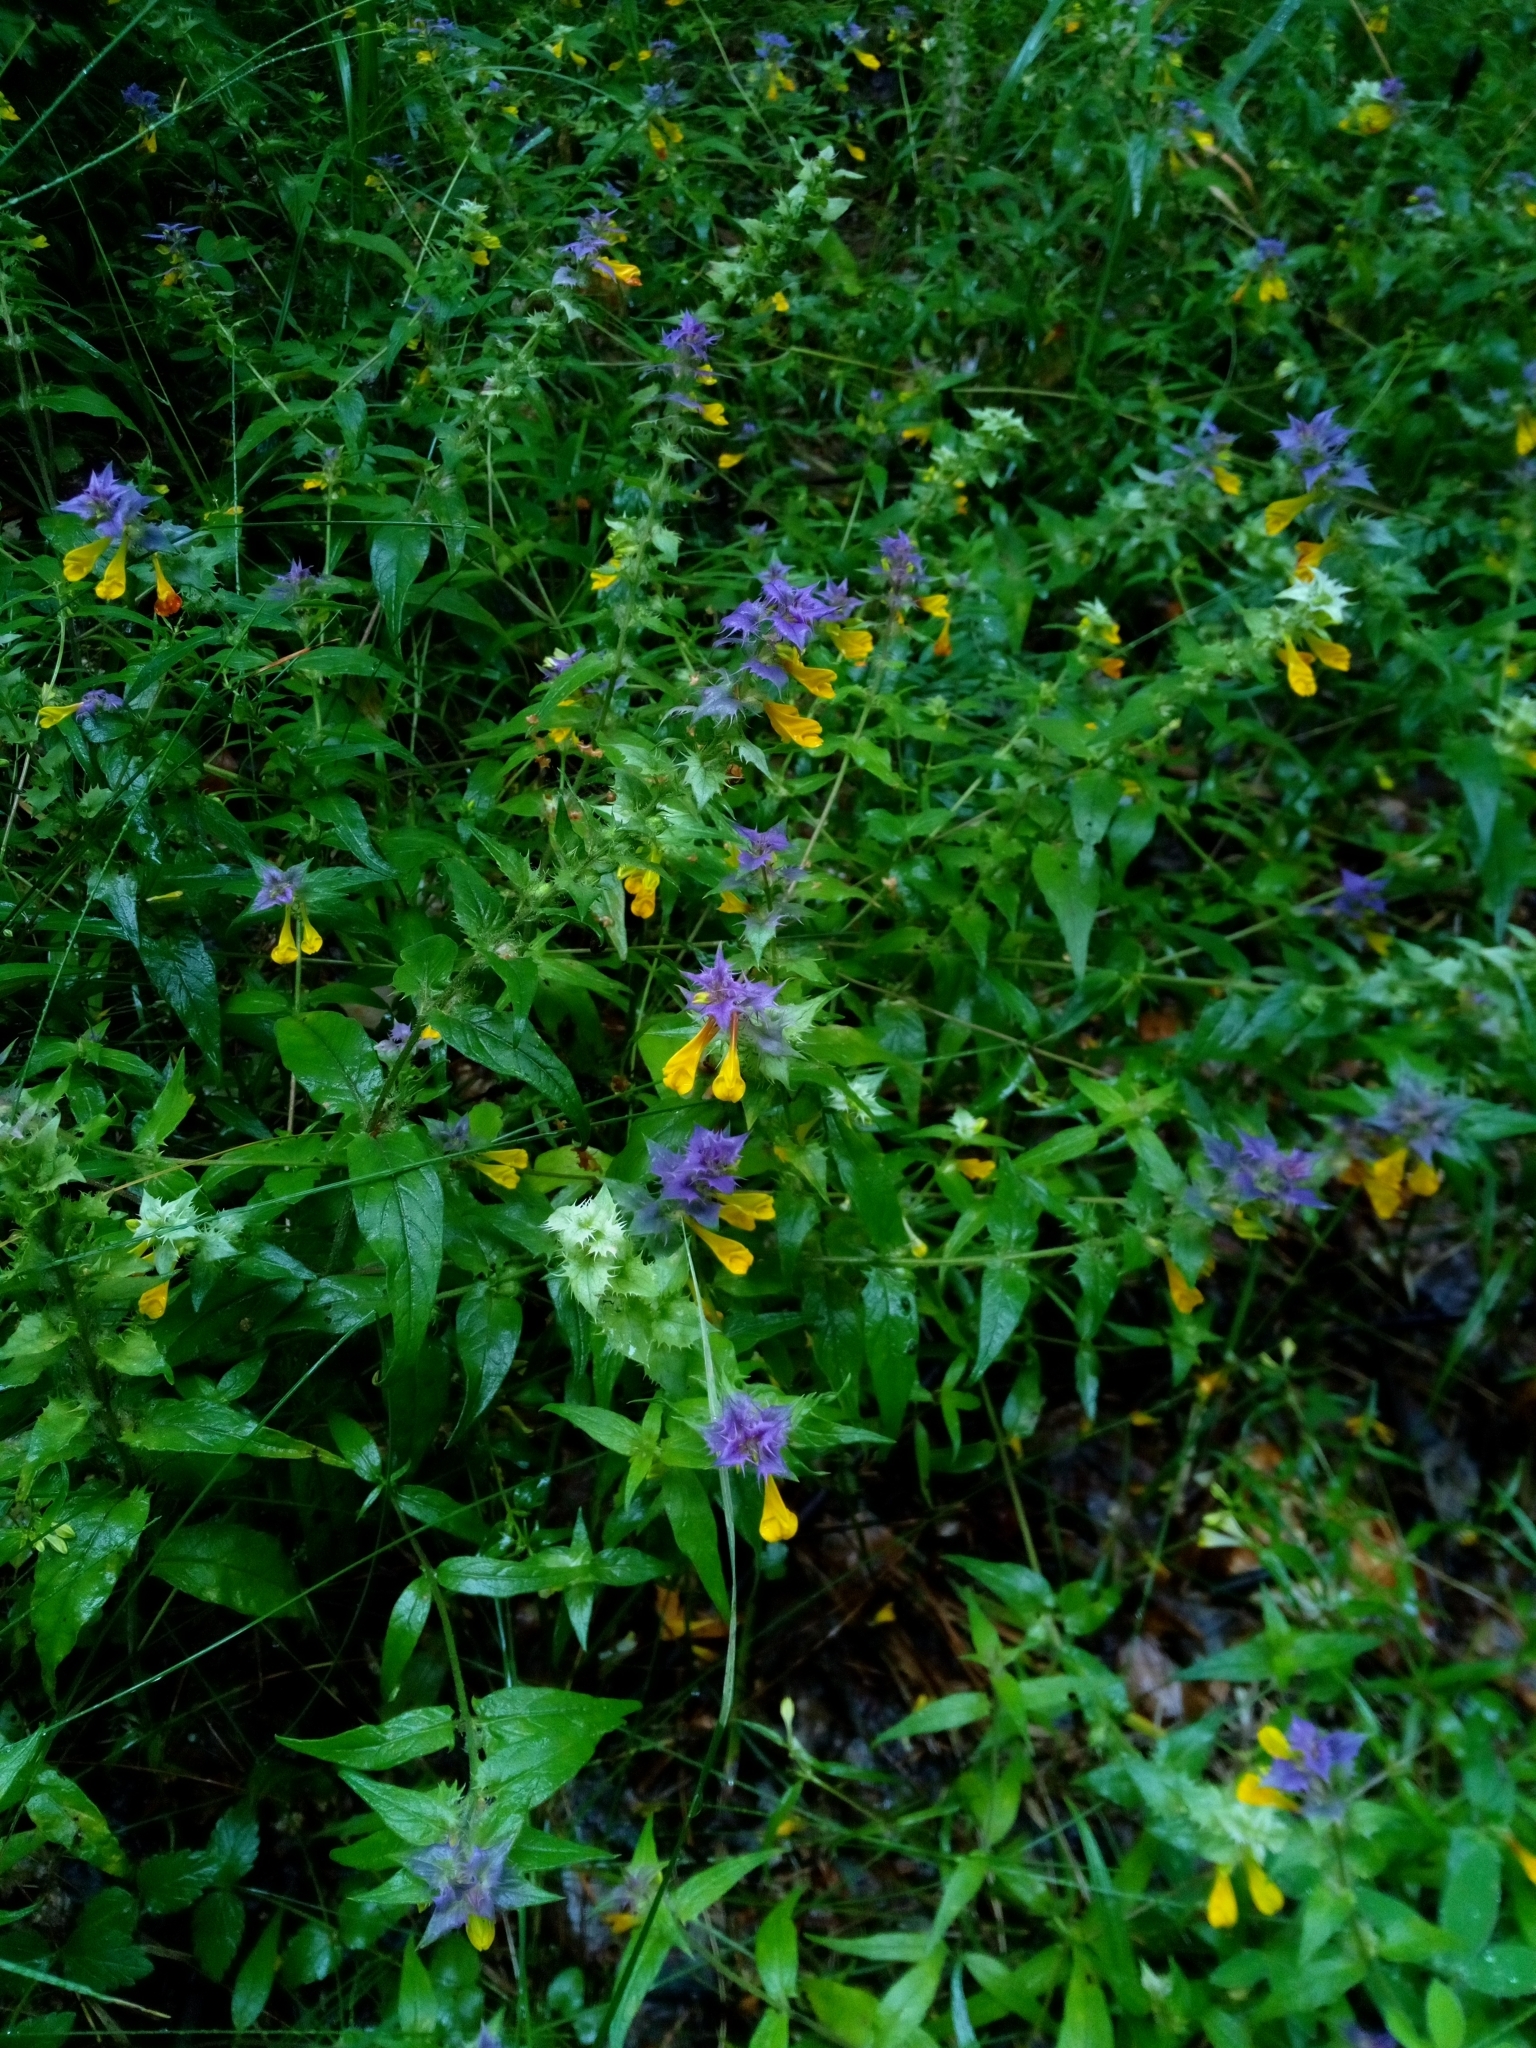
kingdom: Plantae
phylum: Tracheophyta
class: Magnoliopsida
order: Lamiales
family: Orobanchaceae
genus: Melampyrum
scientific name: Melampyrum nemorosum
